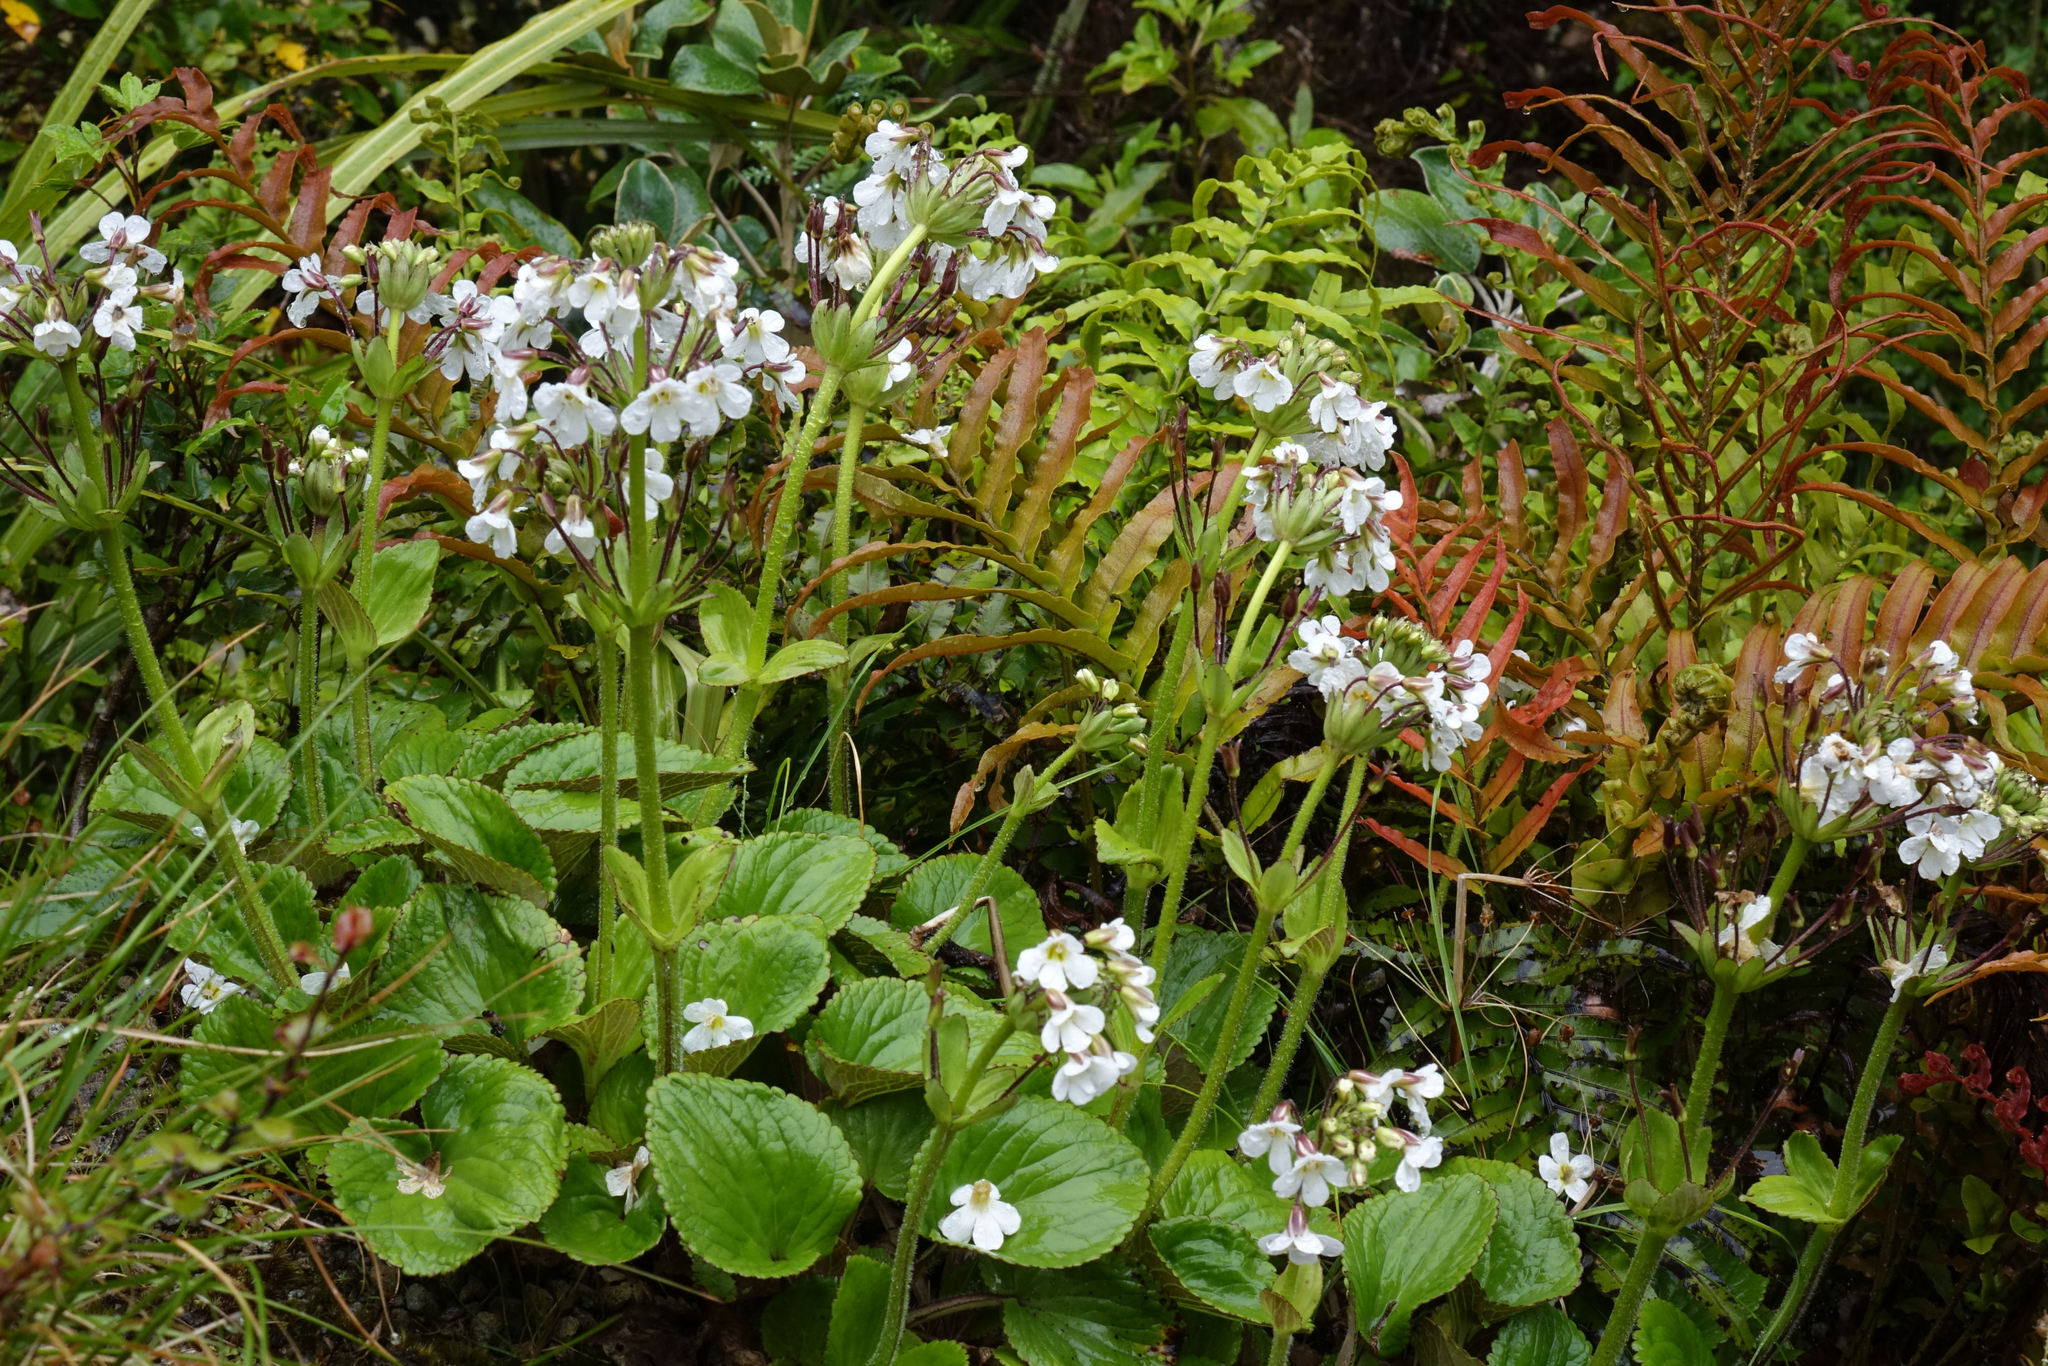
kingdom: Plantae
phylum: Tracheophyta
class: Magnoliopsida
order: Lamiales
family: Plantaginaceae
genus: Ourisia
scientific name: Ourisia macrophylla
